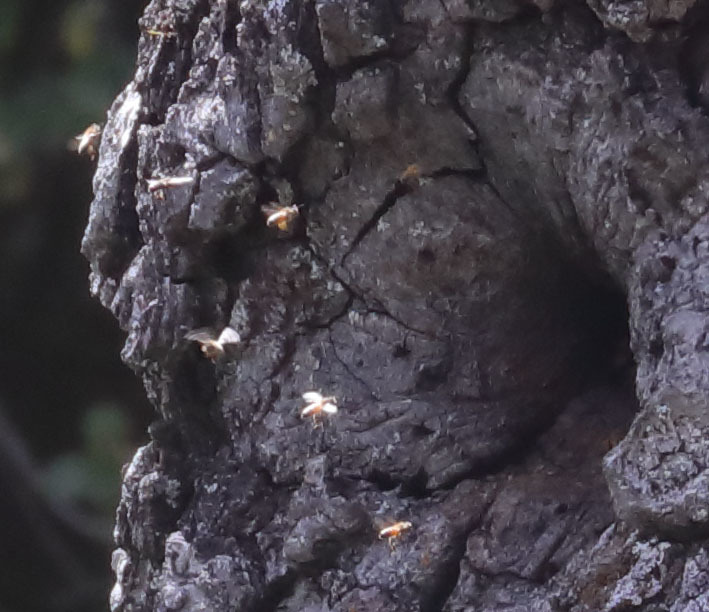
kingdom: Animalia
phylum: Arthropoda
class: Insecta
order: Hymenoptera
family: Apidae
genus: Apis
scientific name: Apis mellifera
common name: Honey bee
